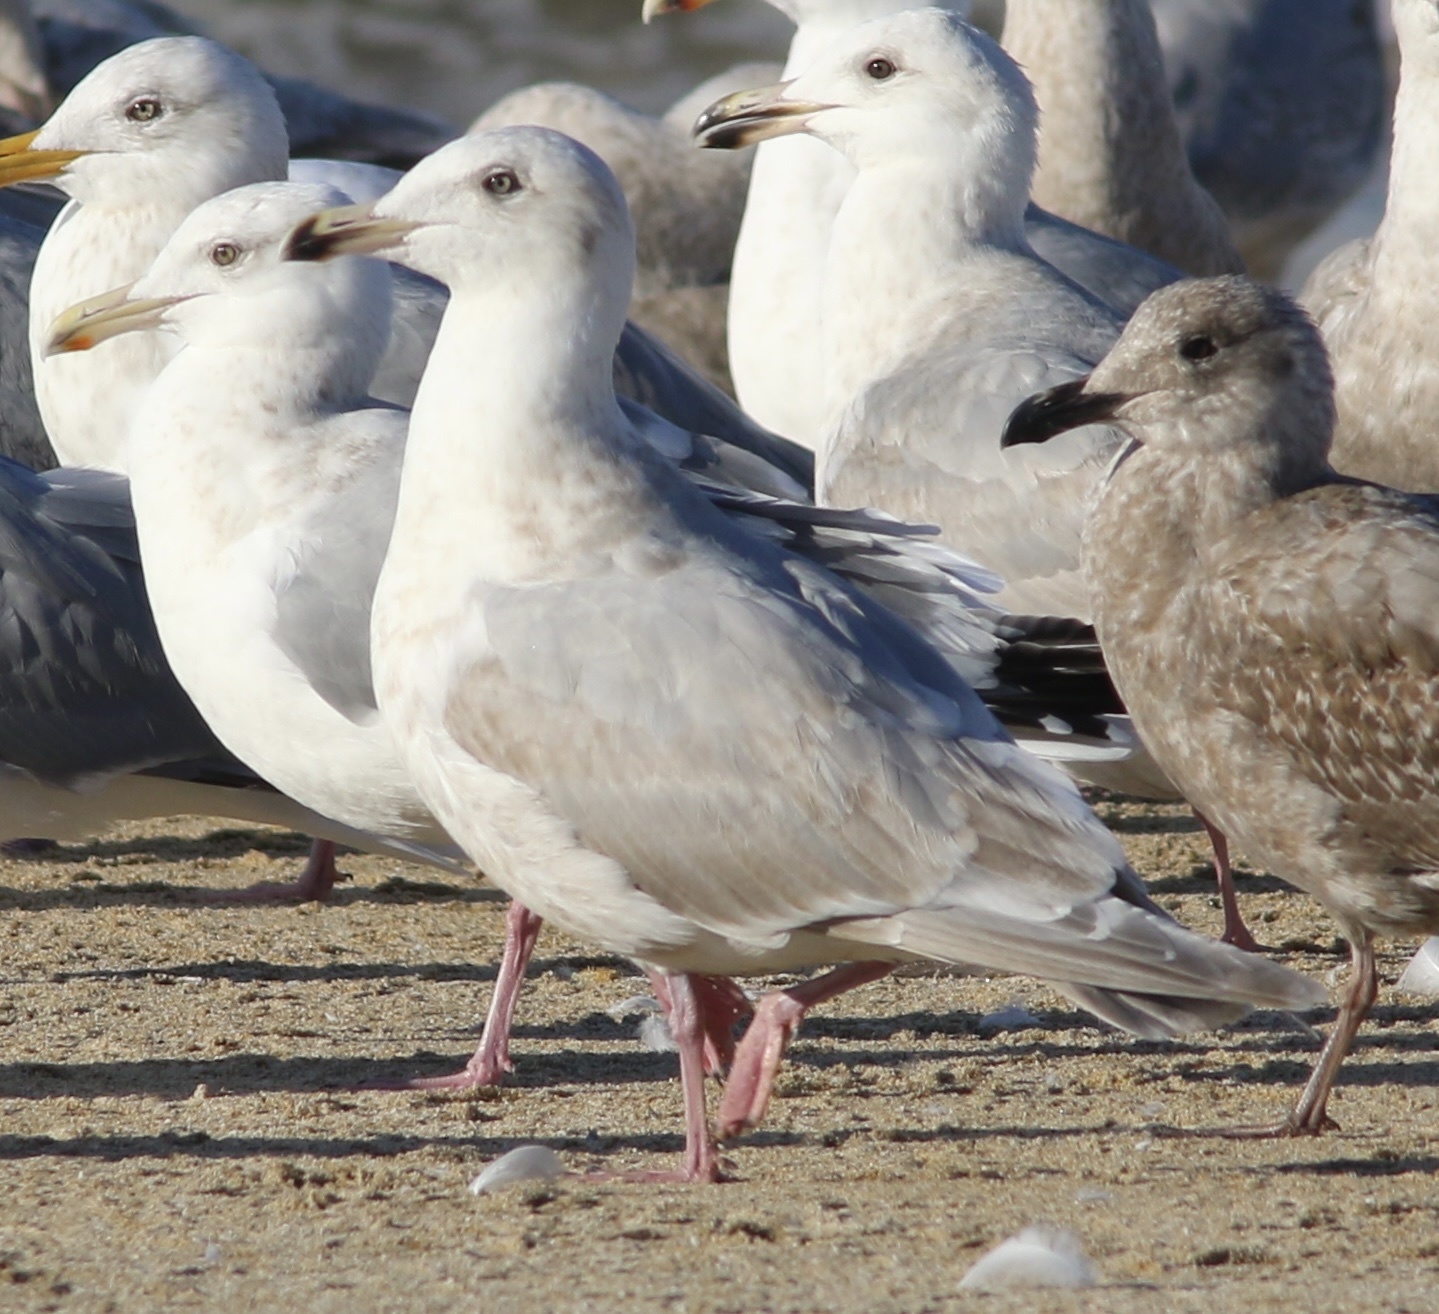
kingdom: Animalia
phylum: Chordata
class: Aves
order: Charadriiformes
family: Laridae
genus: Larus
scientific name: Larus glaucescens
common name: Glaucous-winged gull
